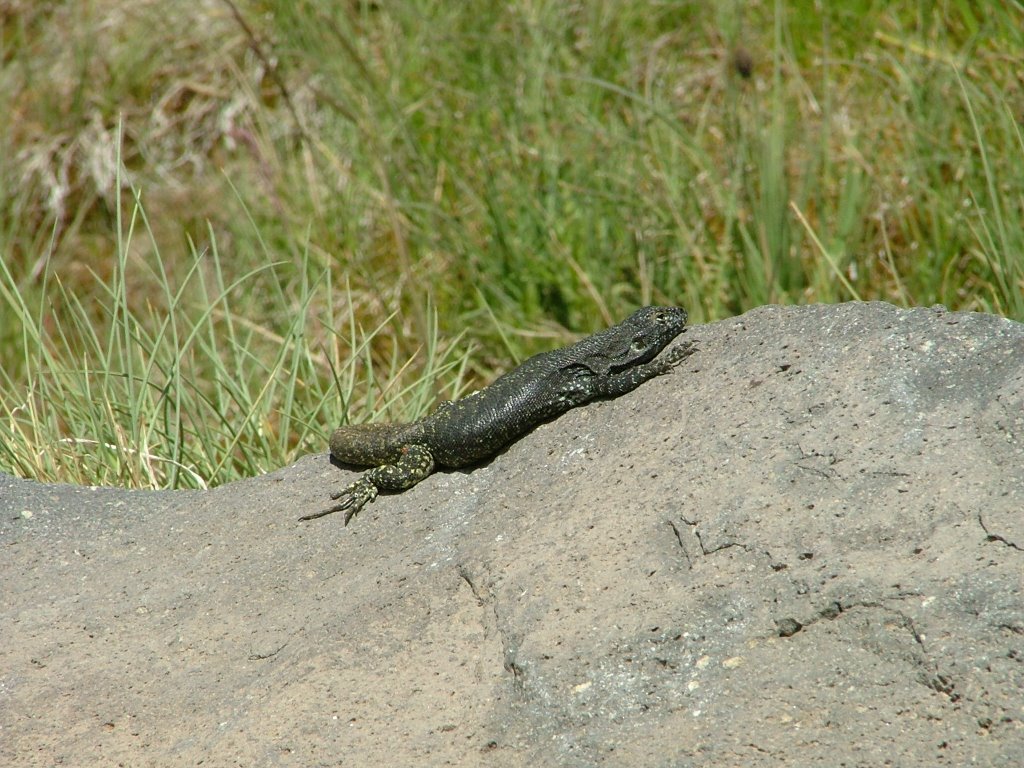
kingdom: Animalia
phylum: Chordata
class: Squamata
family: Liolaemidae
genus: Liolaemus
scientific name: Liolaemus flavipiceus
